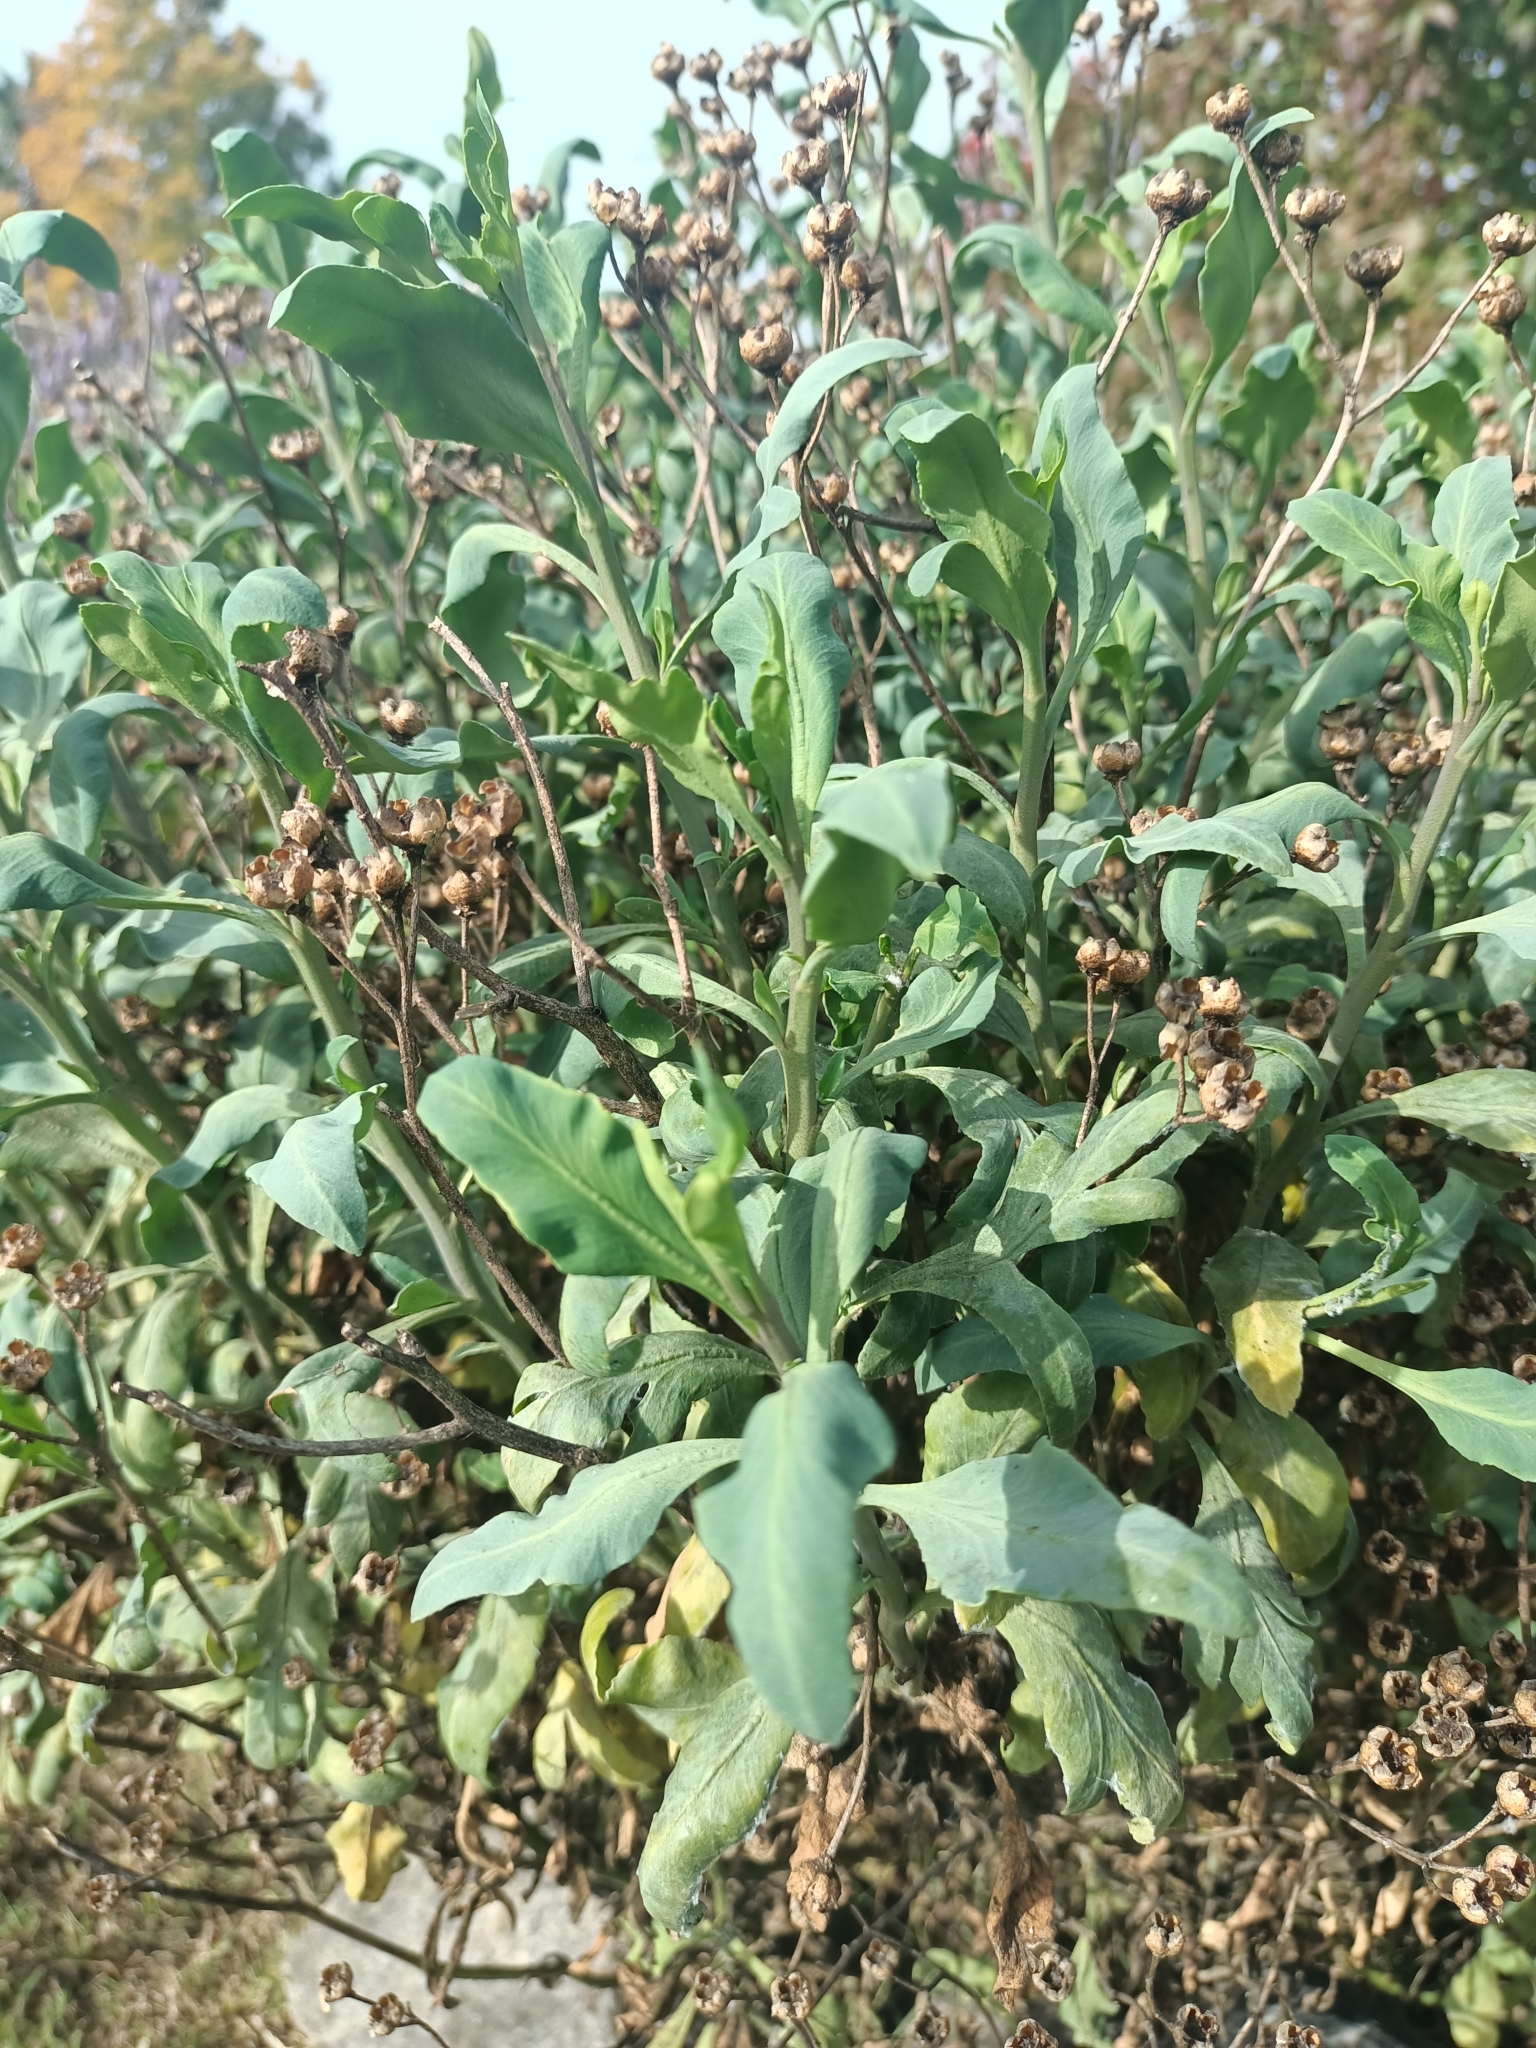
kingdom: Plantae
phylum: Tracheophyta
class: Magnoliopsida
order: Sapindales
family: Rutaceae
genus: Ruta
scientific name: Ruta graveolens
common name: Common rue
